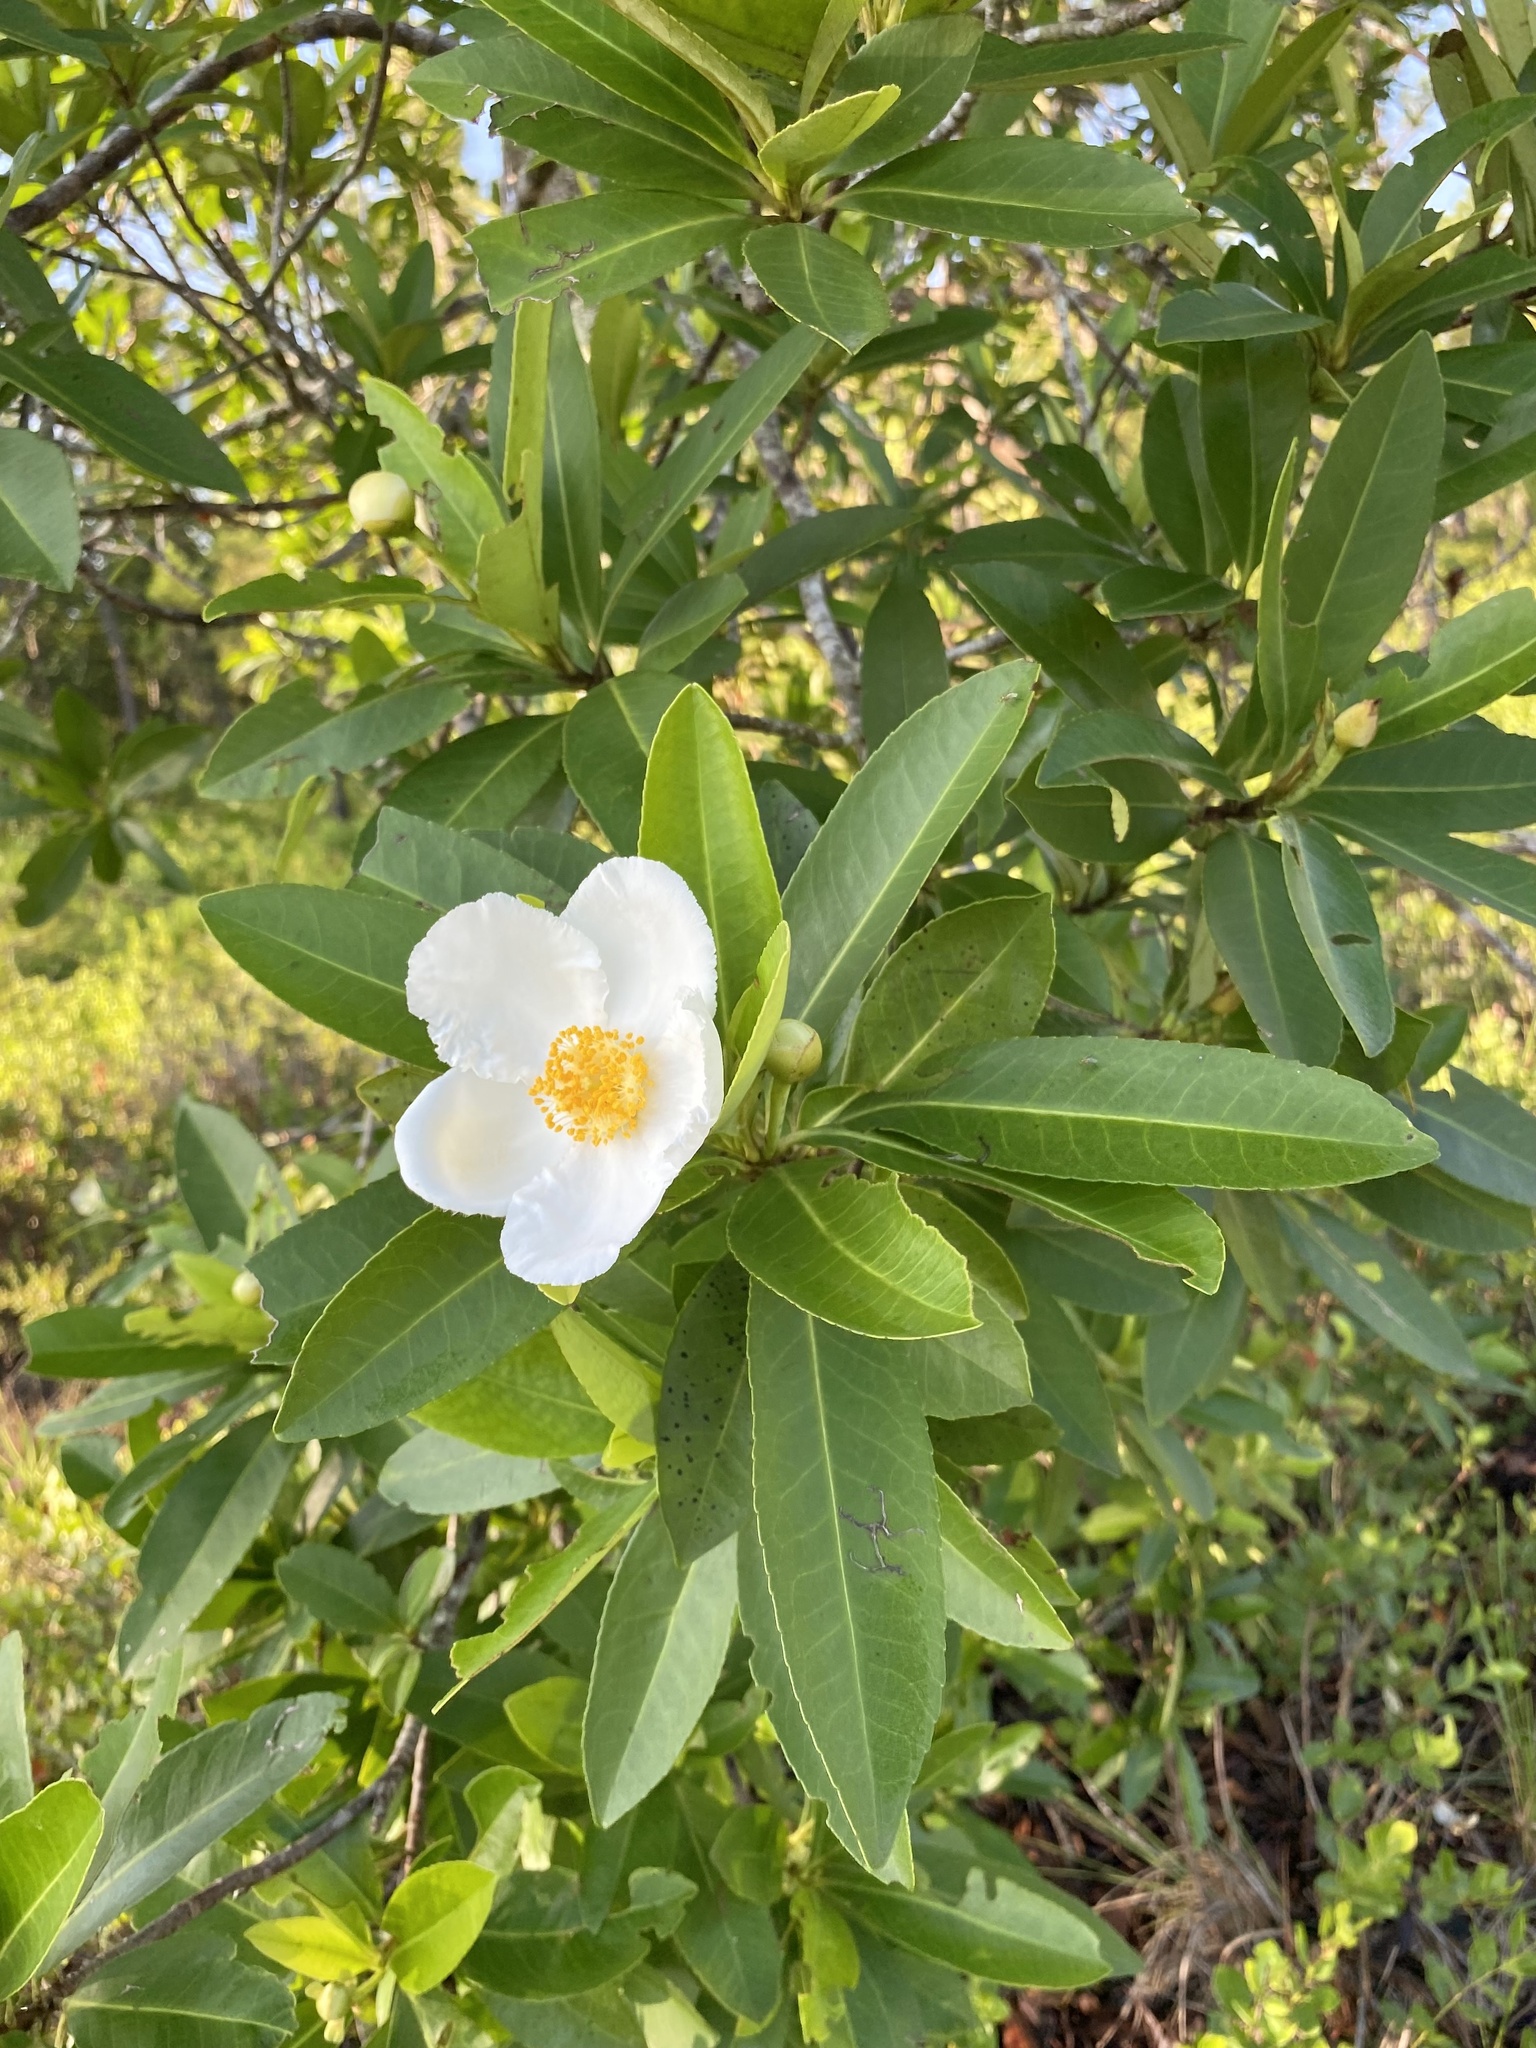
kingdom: Plantae
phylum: Tracheophyta
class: Magnoliopsida
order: Ericales
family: Theaceae
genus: Gordonia
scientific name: Gordonia lasianthus
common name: Loblolly bay
